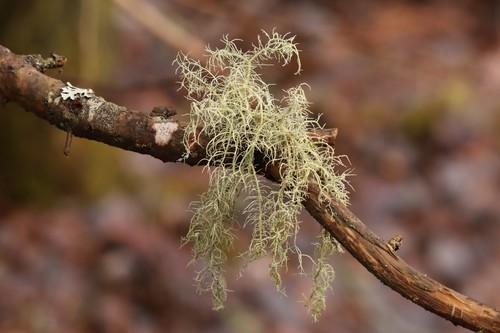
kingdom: Fungi
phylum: Ascomycota
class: Lecanoromycetes
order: Lecanorales
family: Parmeliaceae
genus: Usnea
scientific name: Usnea
